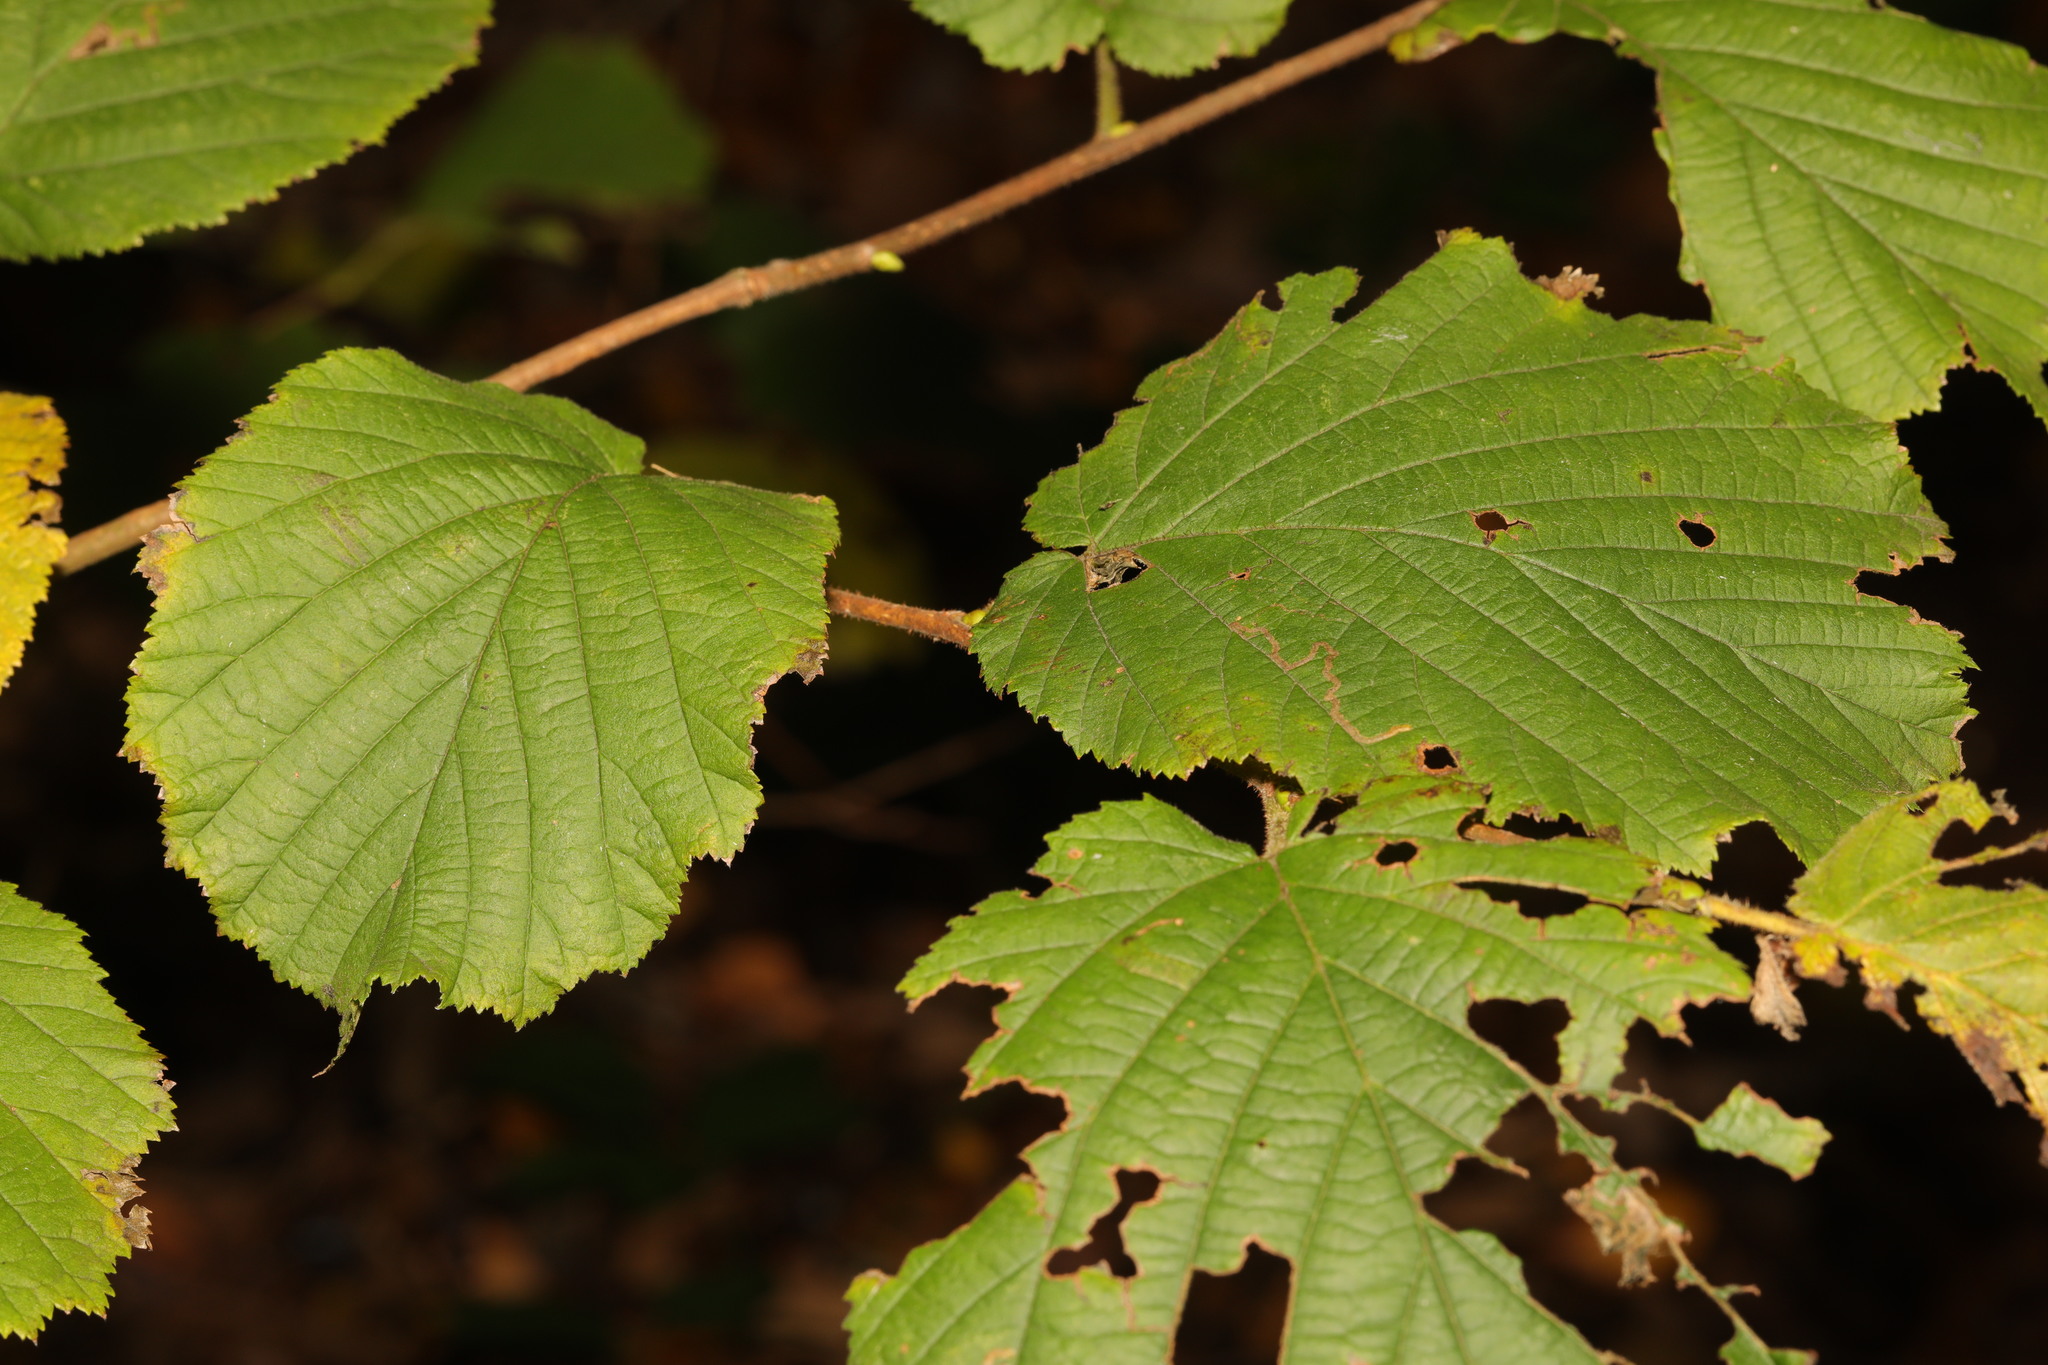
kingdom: Plantae
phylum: Tracheophyta
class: Magnoliopsida
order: Fagales
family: Betulaceae
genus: Corylus
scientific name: Corylus avellana
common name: European hazel
